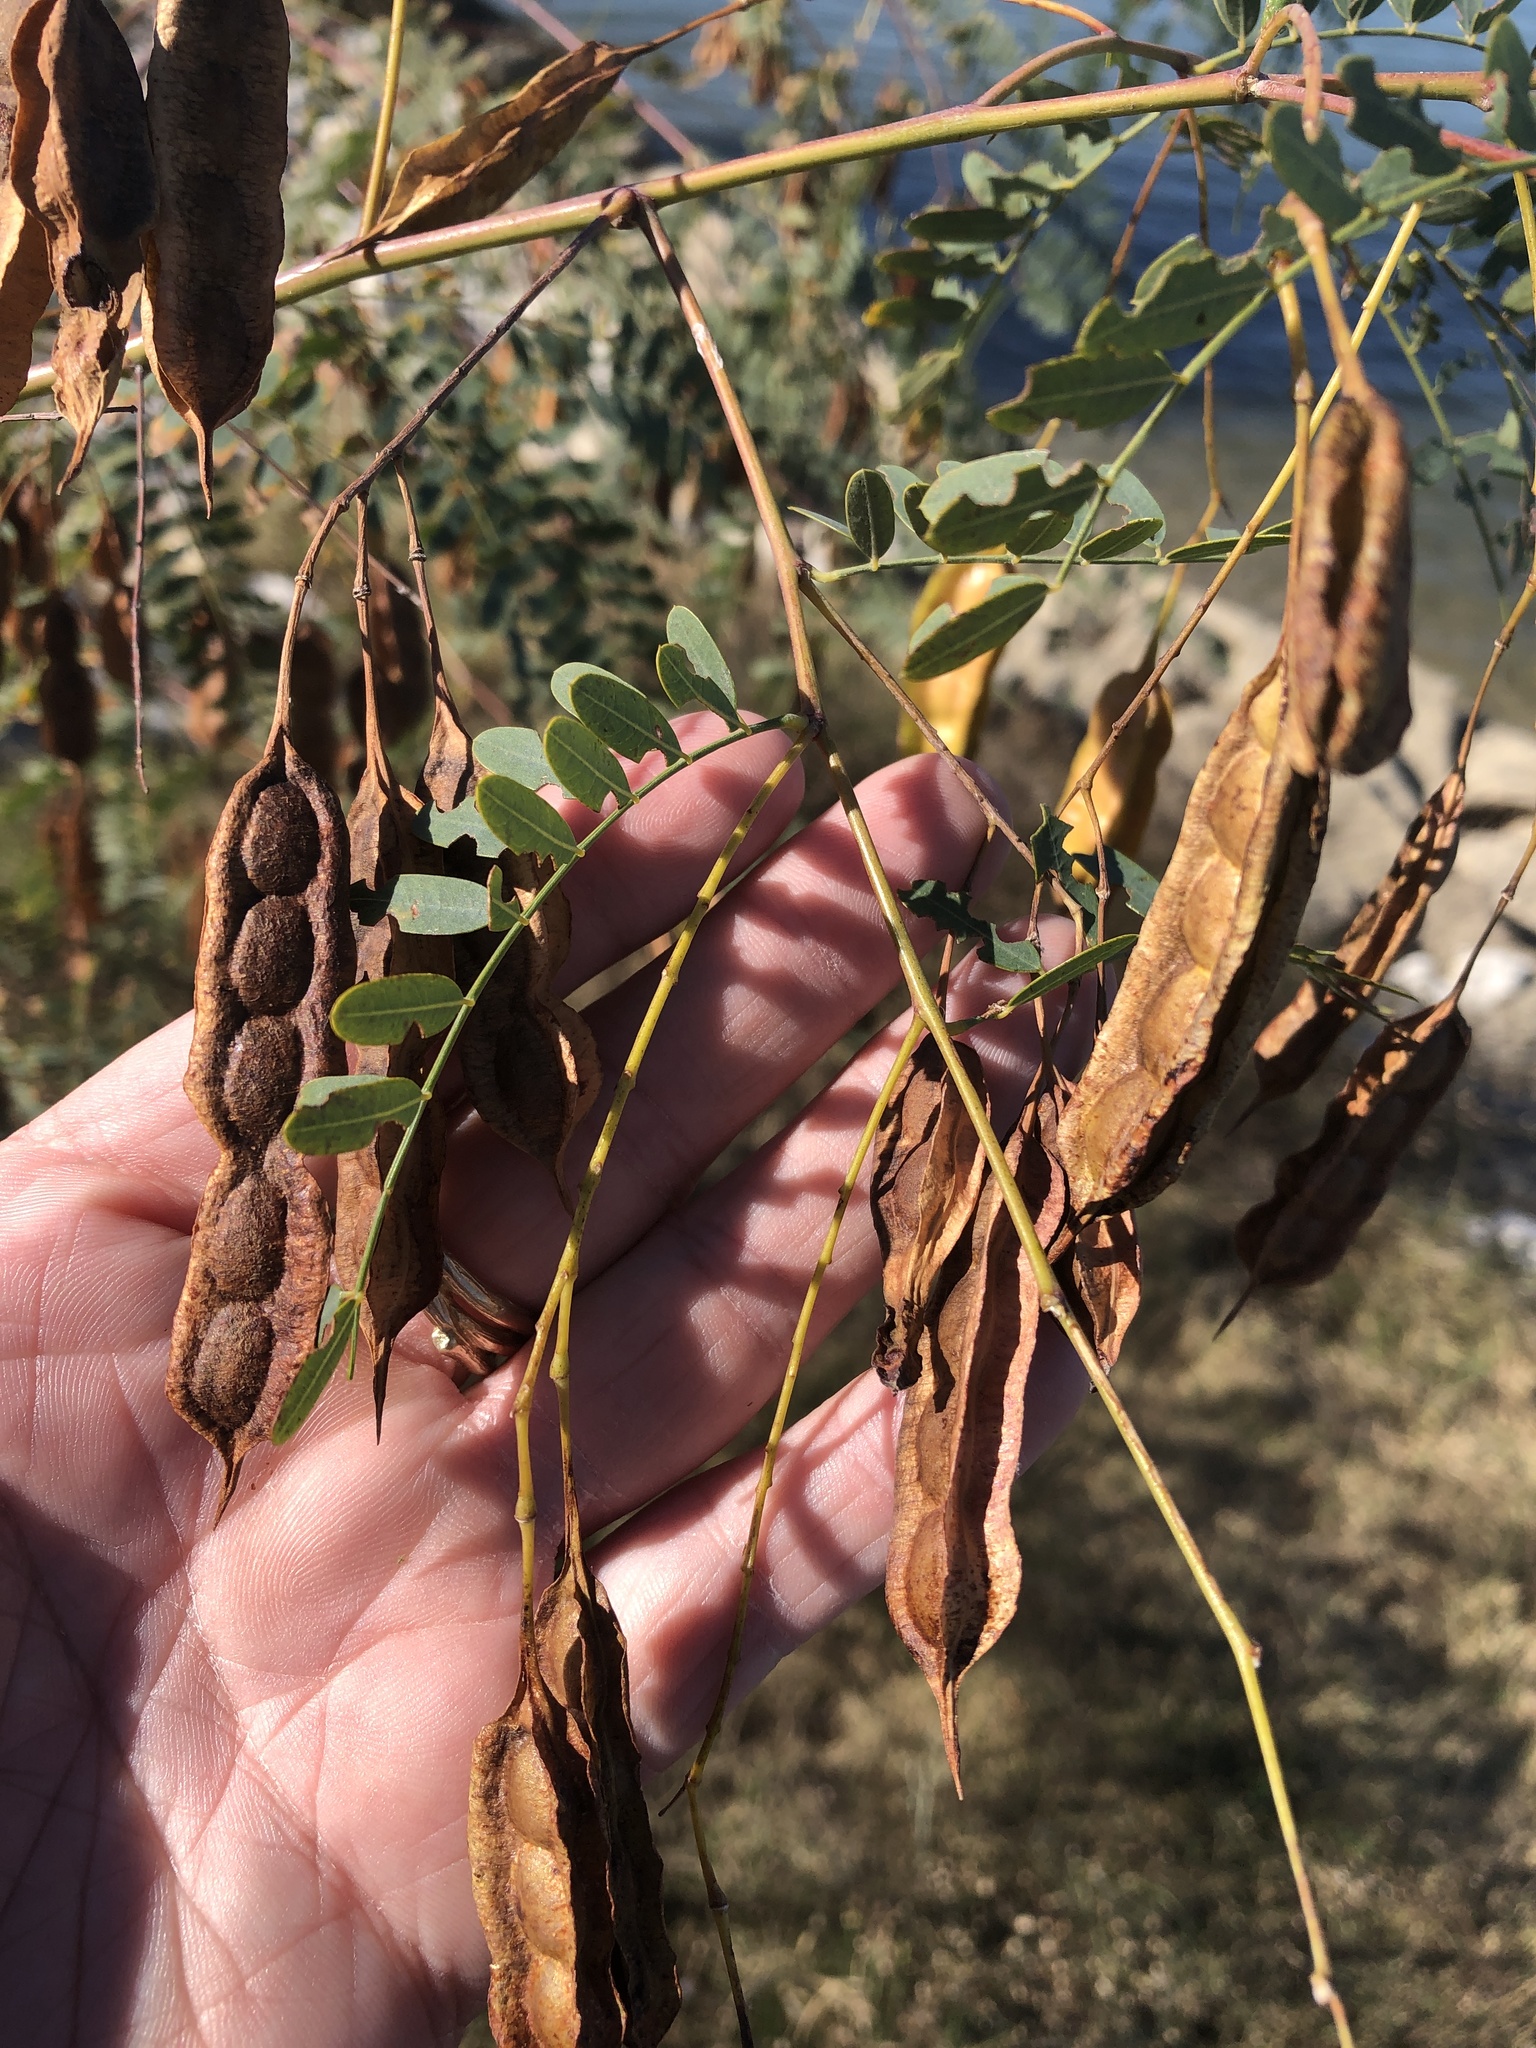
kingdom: Plantae
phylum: Tracheophyta
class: Magnoliopsida
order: Fabales
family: Fabaceae
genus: Sesbania
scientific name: Sesbania drummondii
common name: Poison-bean
